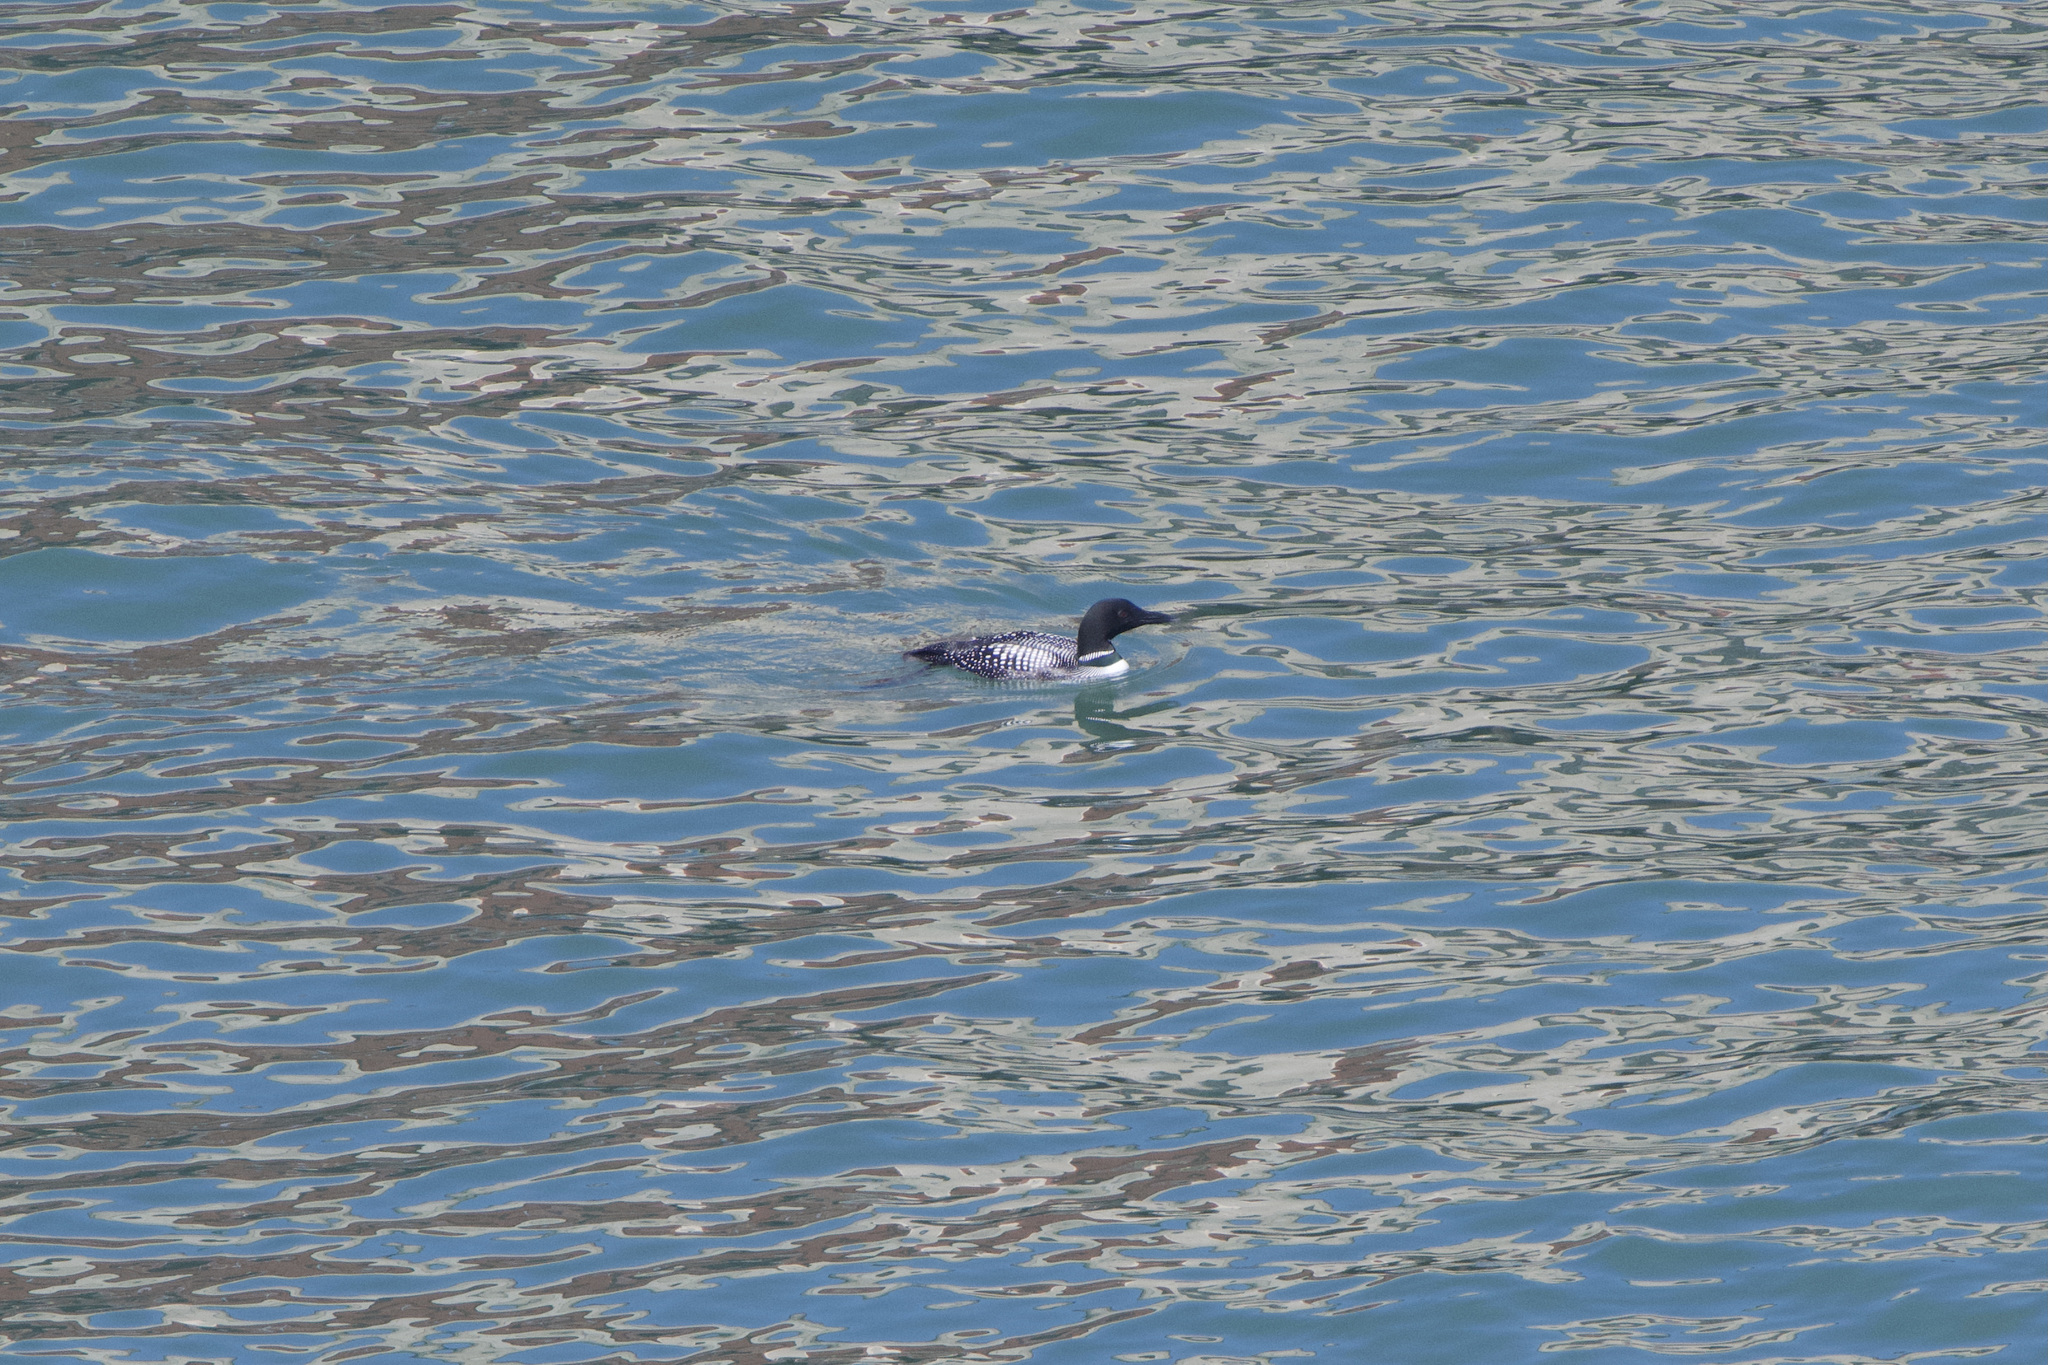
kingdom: Animalia
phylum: Chordata
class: Aves
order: Gaviiformes
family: Gaviidae
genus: Gavia
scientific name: Gavia immer
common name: Common loon
